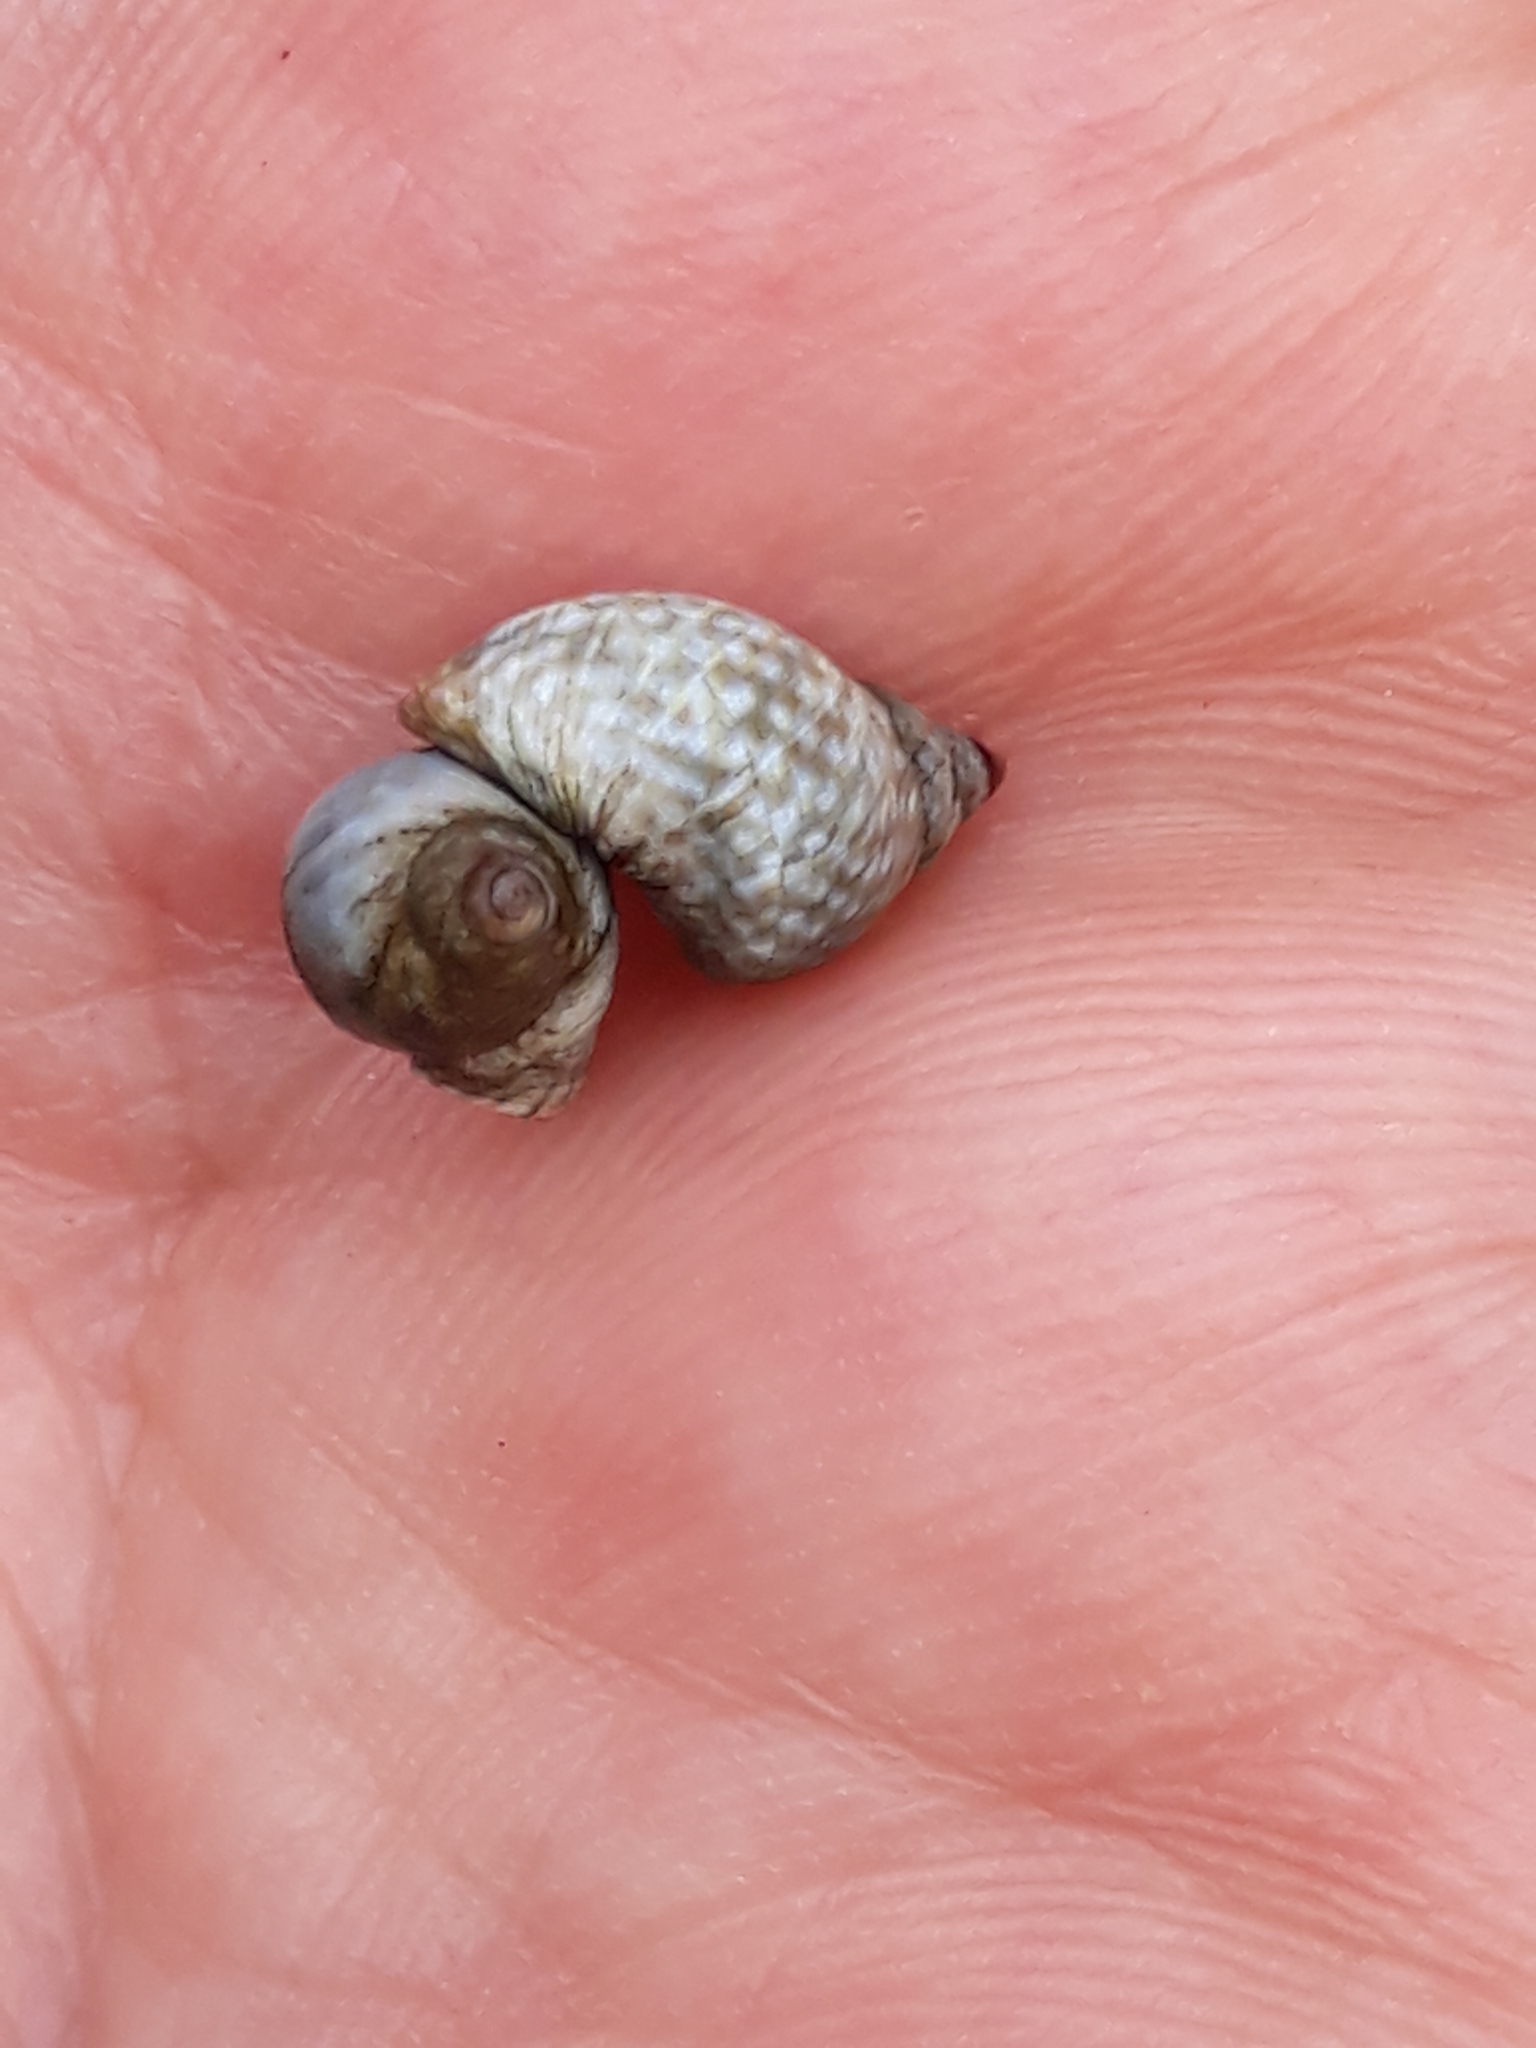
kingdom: Animalia
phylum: Mollusca
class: Gastropoda
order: Littorinimorpha
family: Littorinidae
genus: Echinolittorina
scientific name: Echinolittorina punctata
